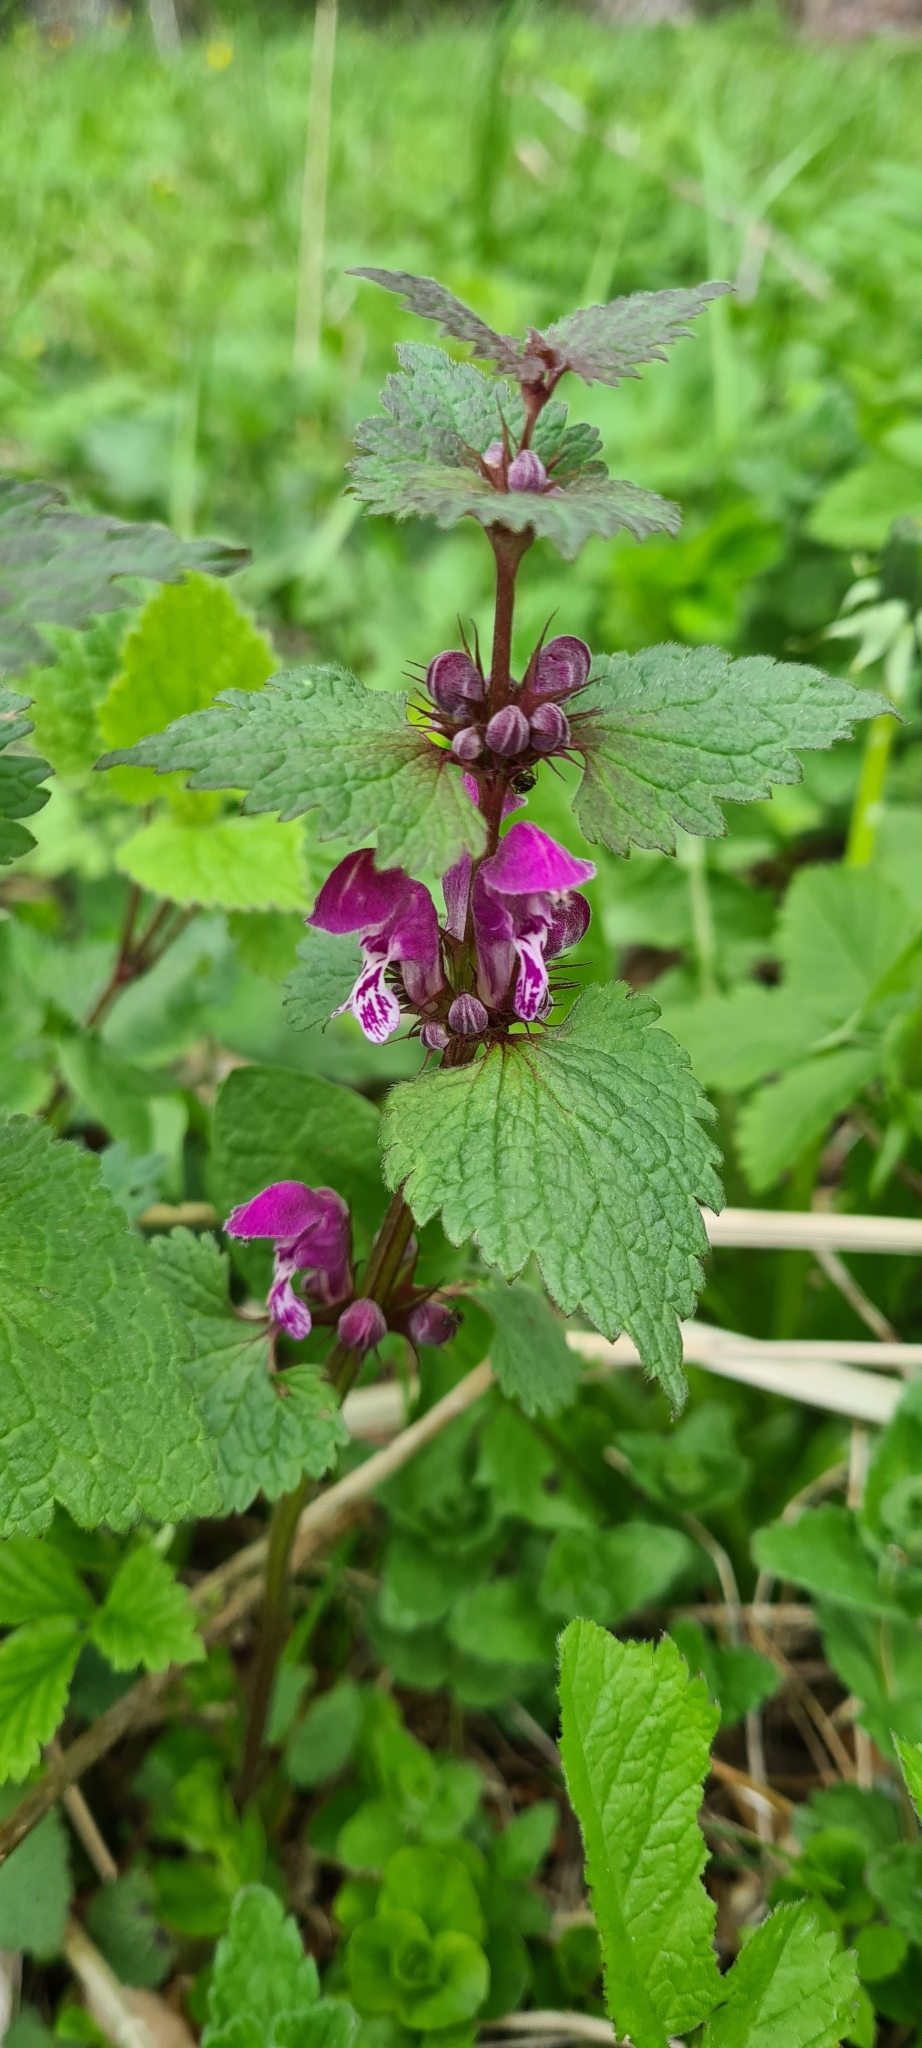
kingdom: Plantae
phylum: Tracheophyta
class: Magnoliopsida
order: Lamiales
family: Lamiaceae
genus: Lamium
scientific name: Lamium maculatum
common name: Spotted dead-nettle
